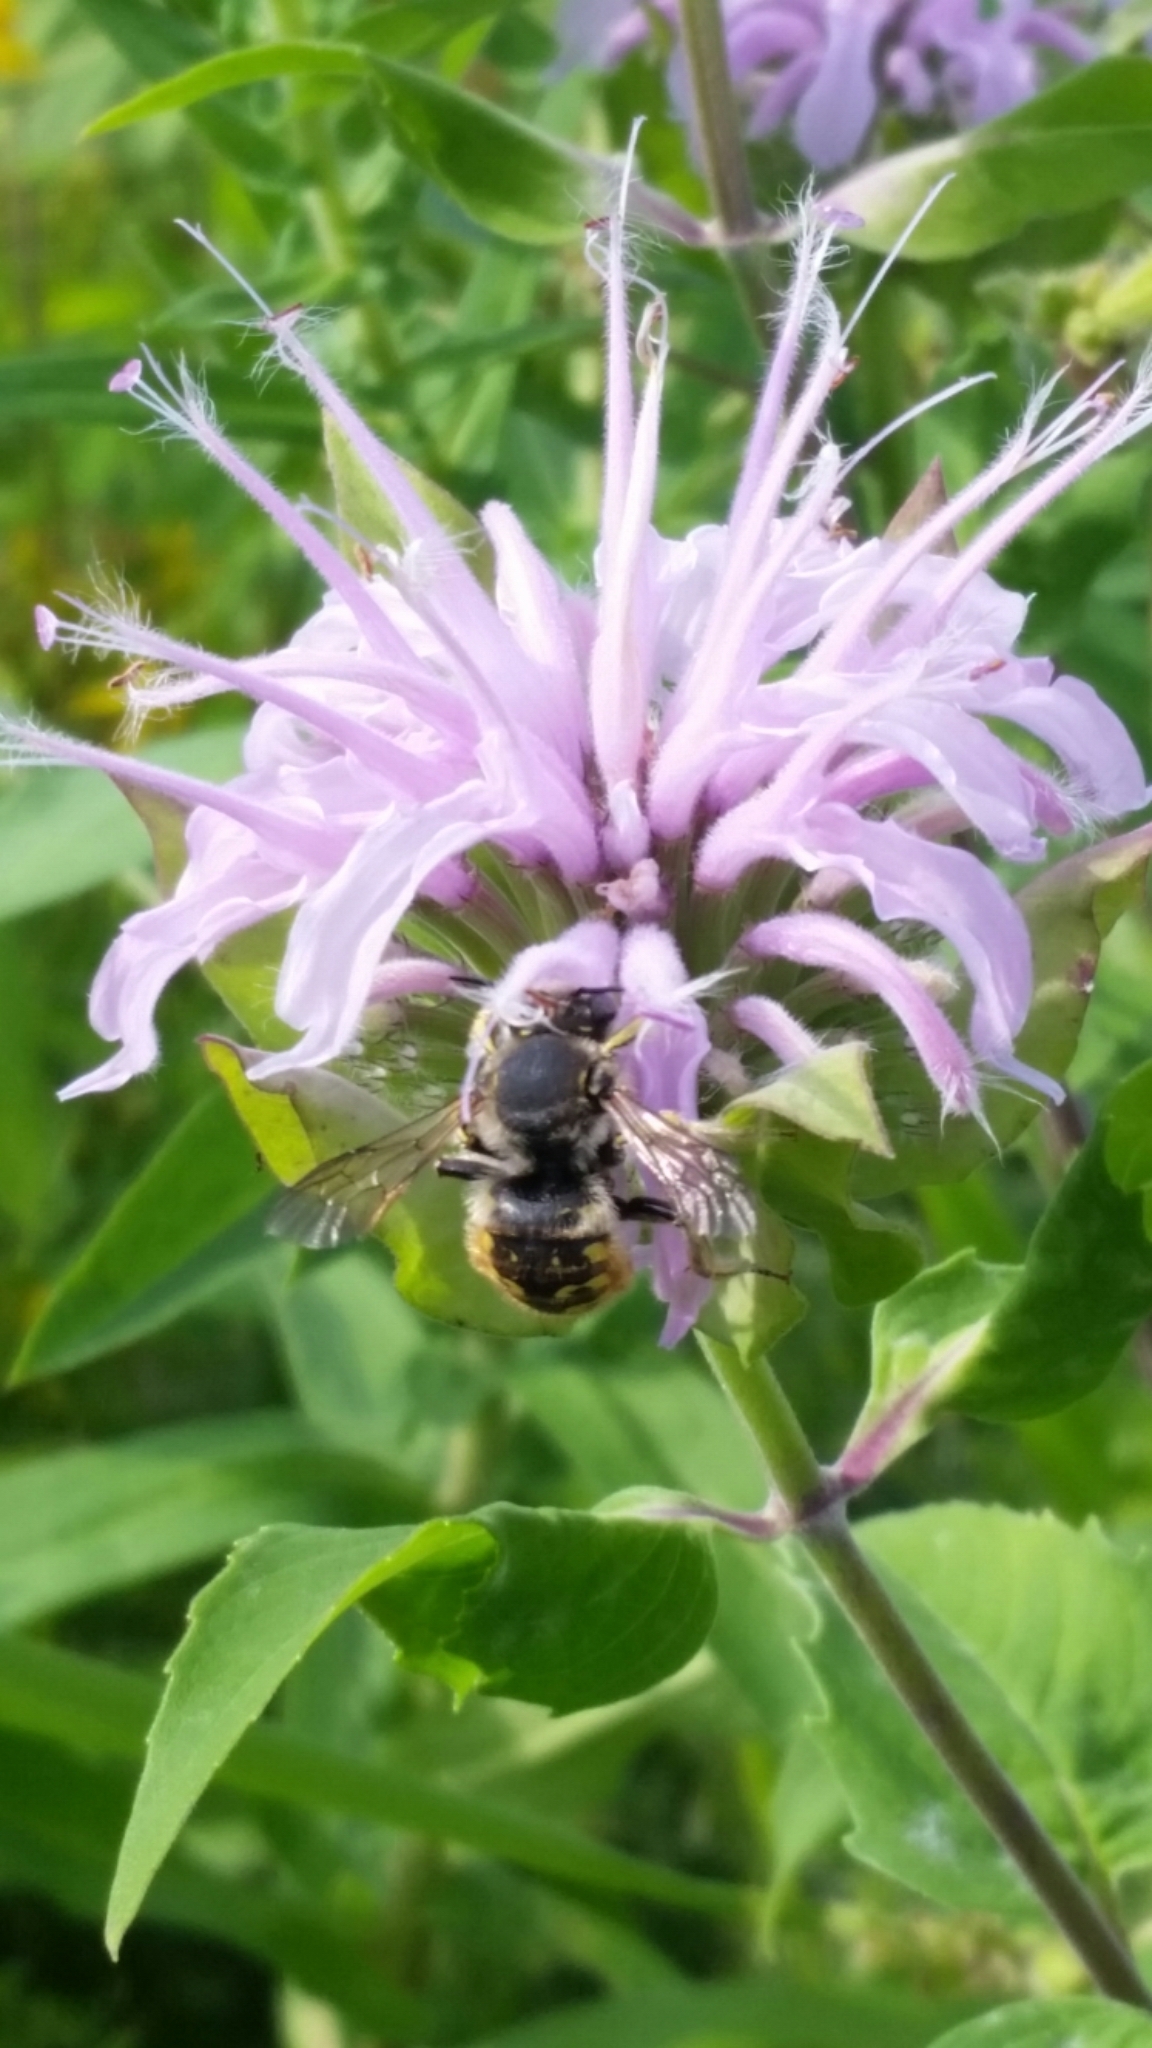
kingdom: Animalia
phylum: Arthropoda
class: Insecta
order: Hymenoptera
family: Megachilidae
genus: Anthidium
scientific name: Anthidium manicatum
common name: Wool carder bee
